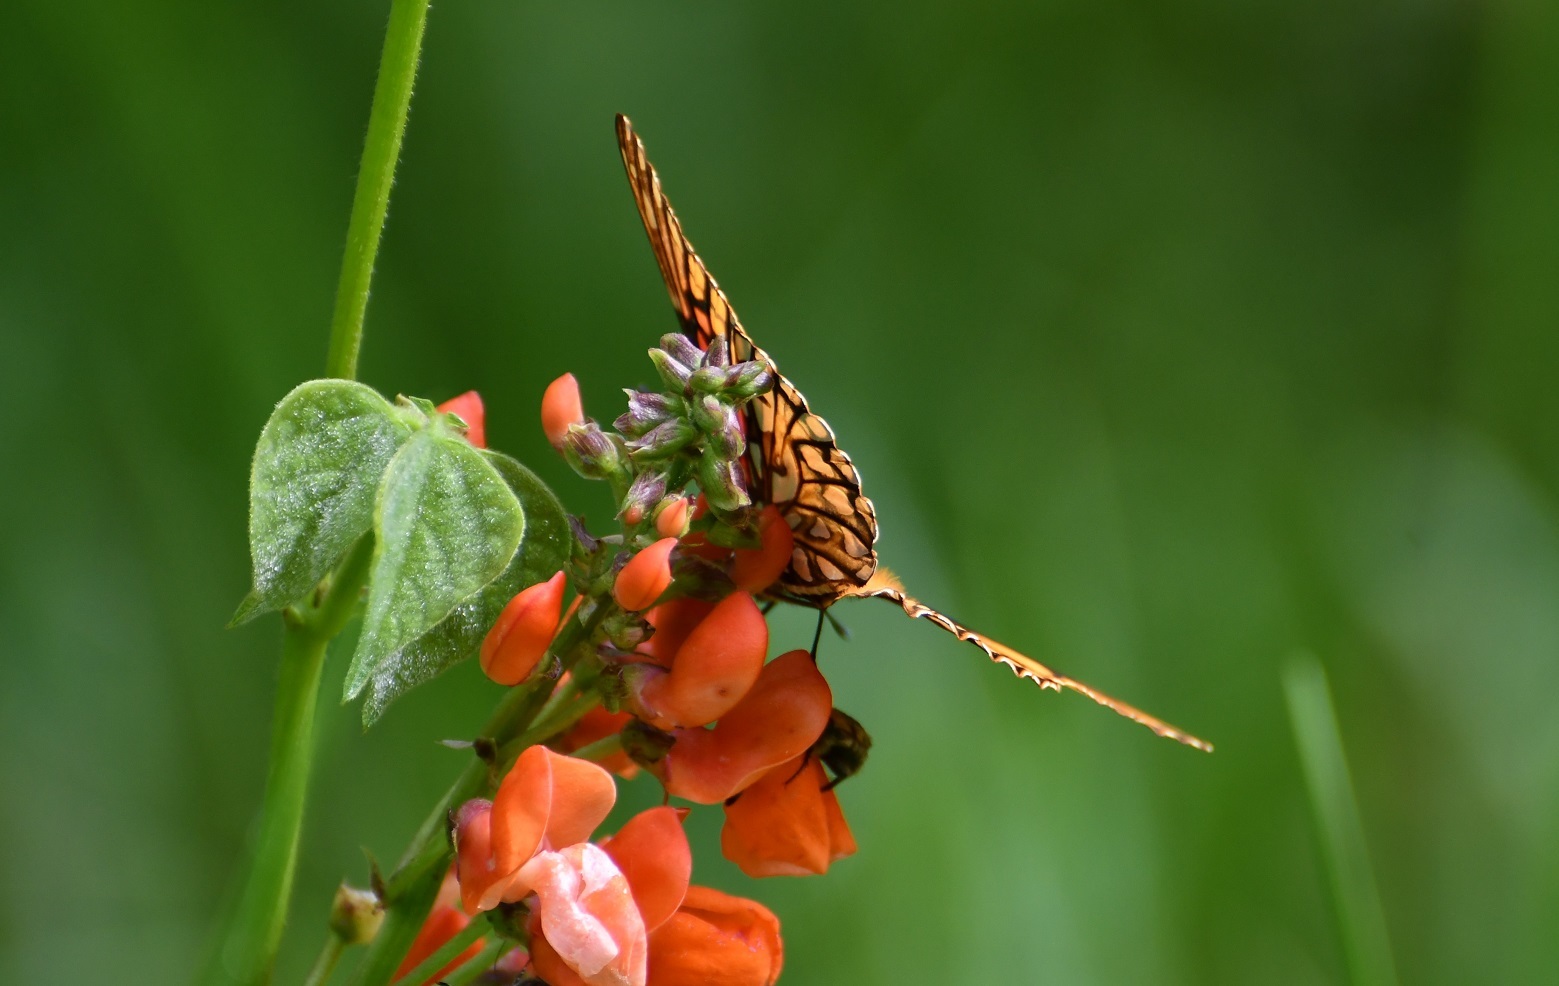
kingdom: Animalia
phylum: Arthropoda
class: Insecta
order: Lepidoptera
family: Nymphalidae
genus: Dione
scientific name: Dione moneta
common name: Mexican silverspot
